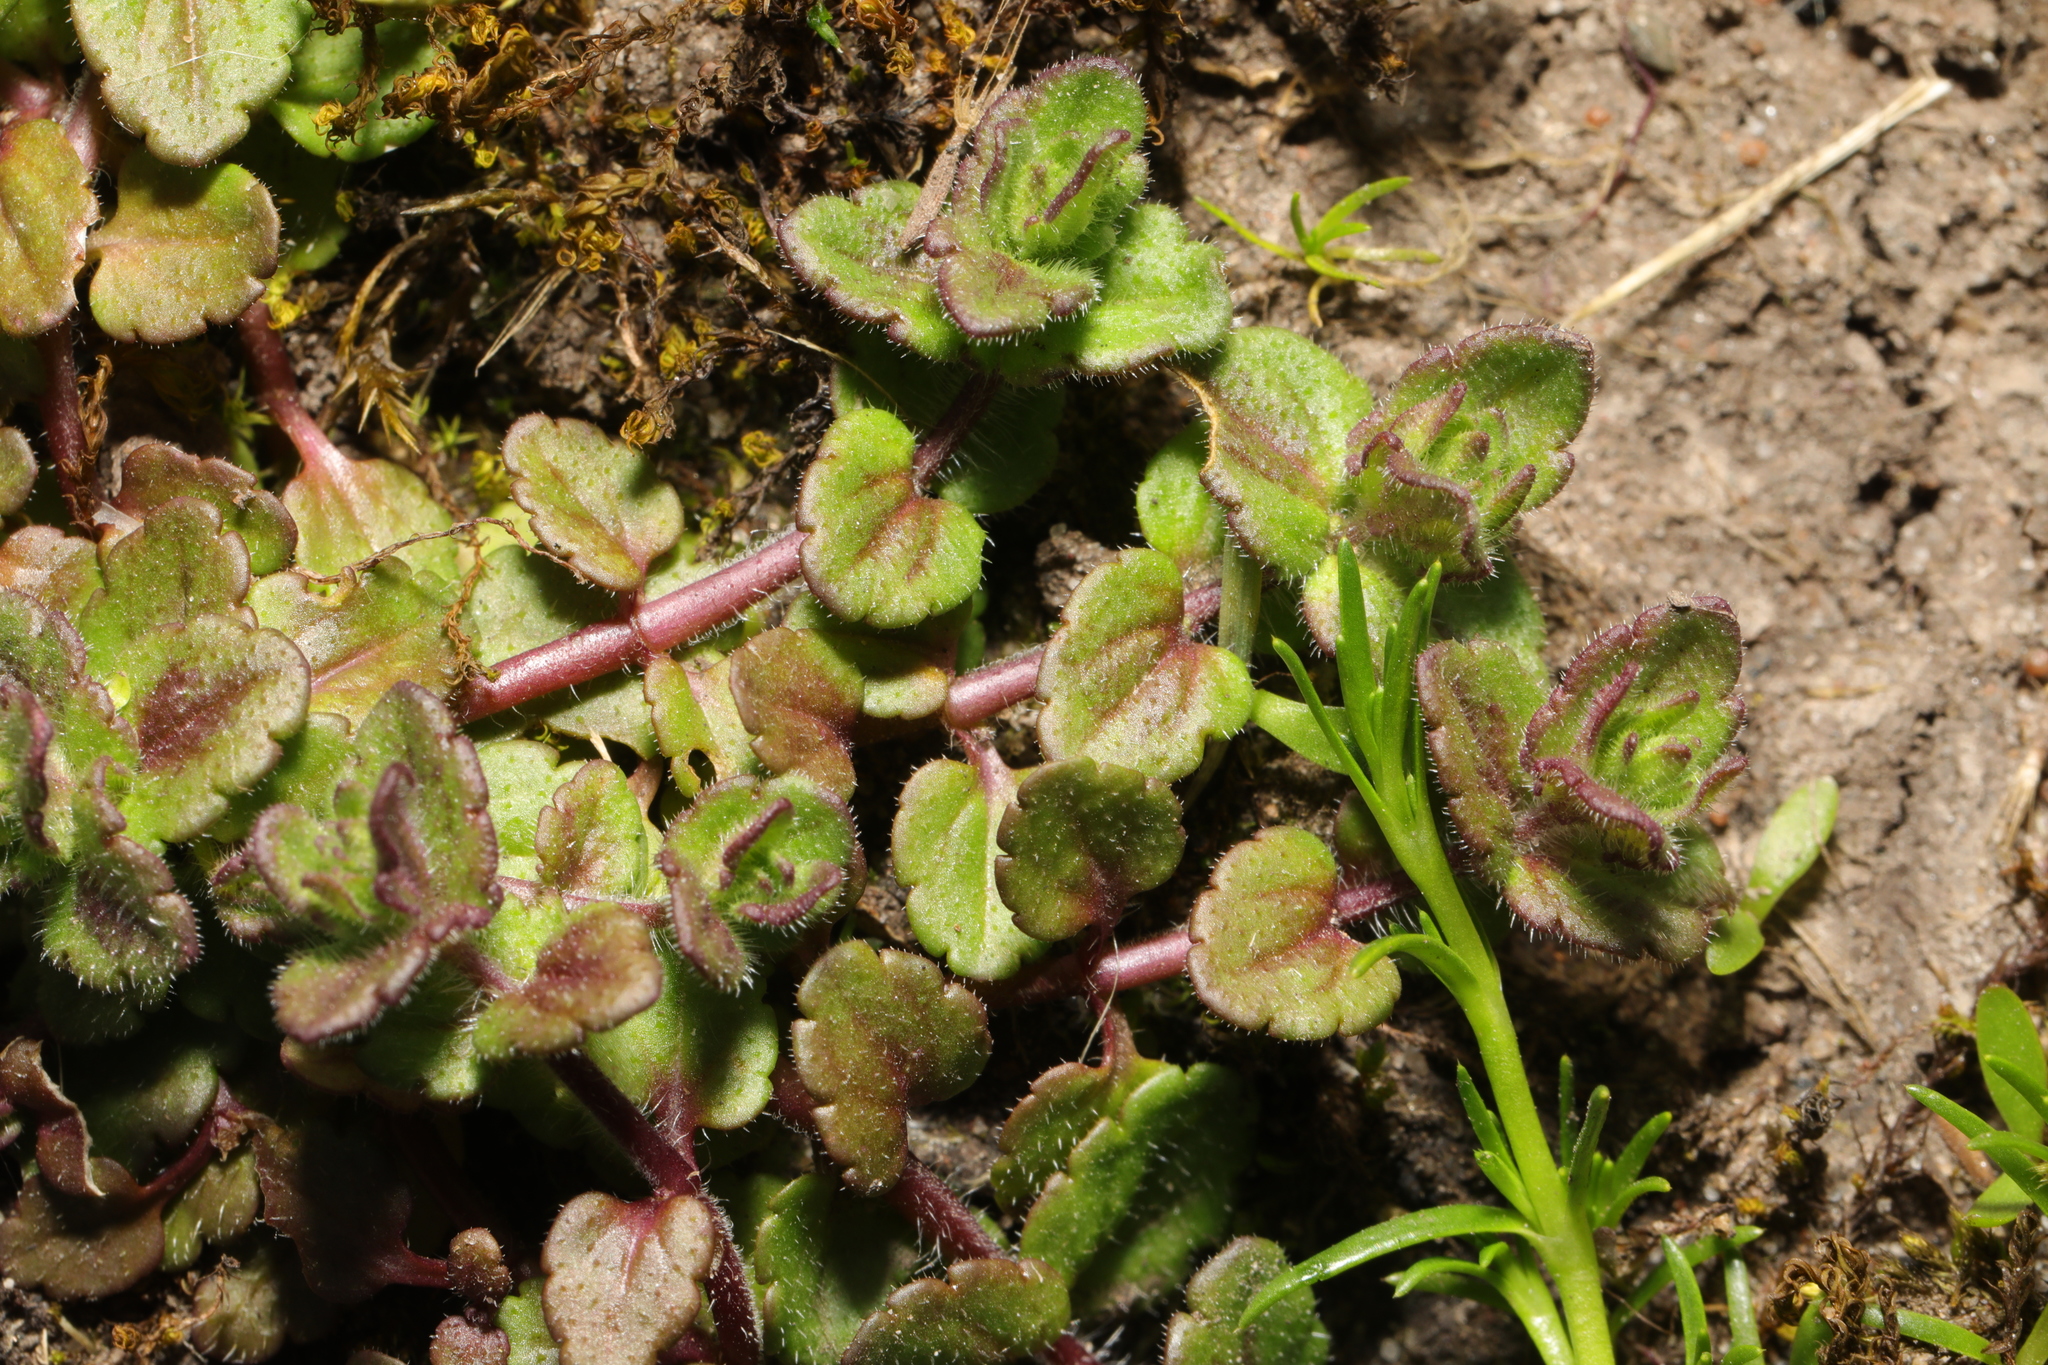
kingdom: Plantae
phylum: Tracheophyta
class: Magnoliopsida
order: Lamiales
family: Plantaginaceae
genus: Veronica
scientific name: Veronica arvensis
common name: Corn speedwell
